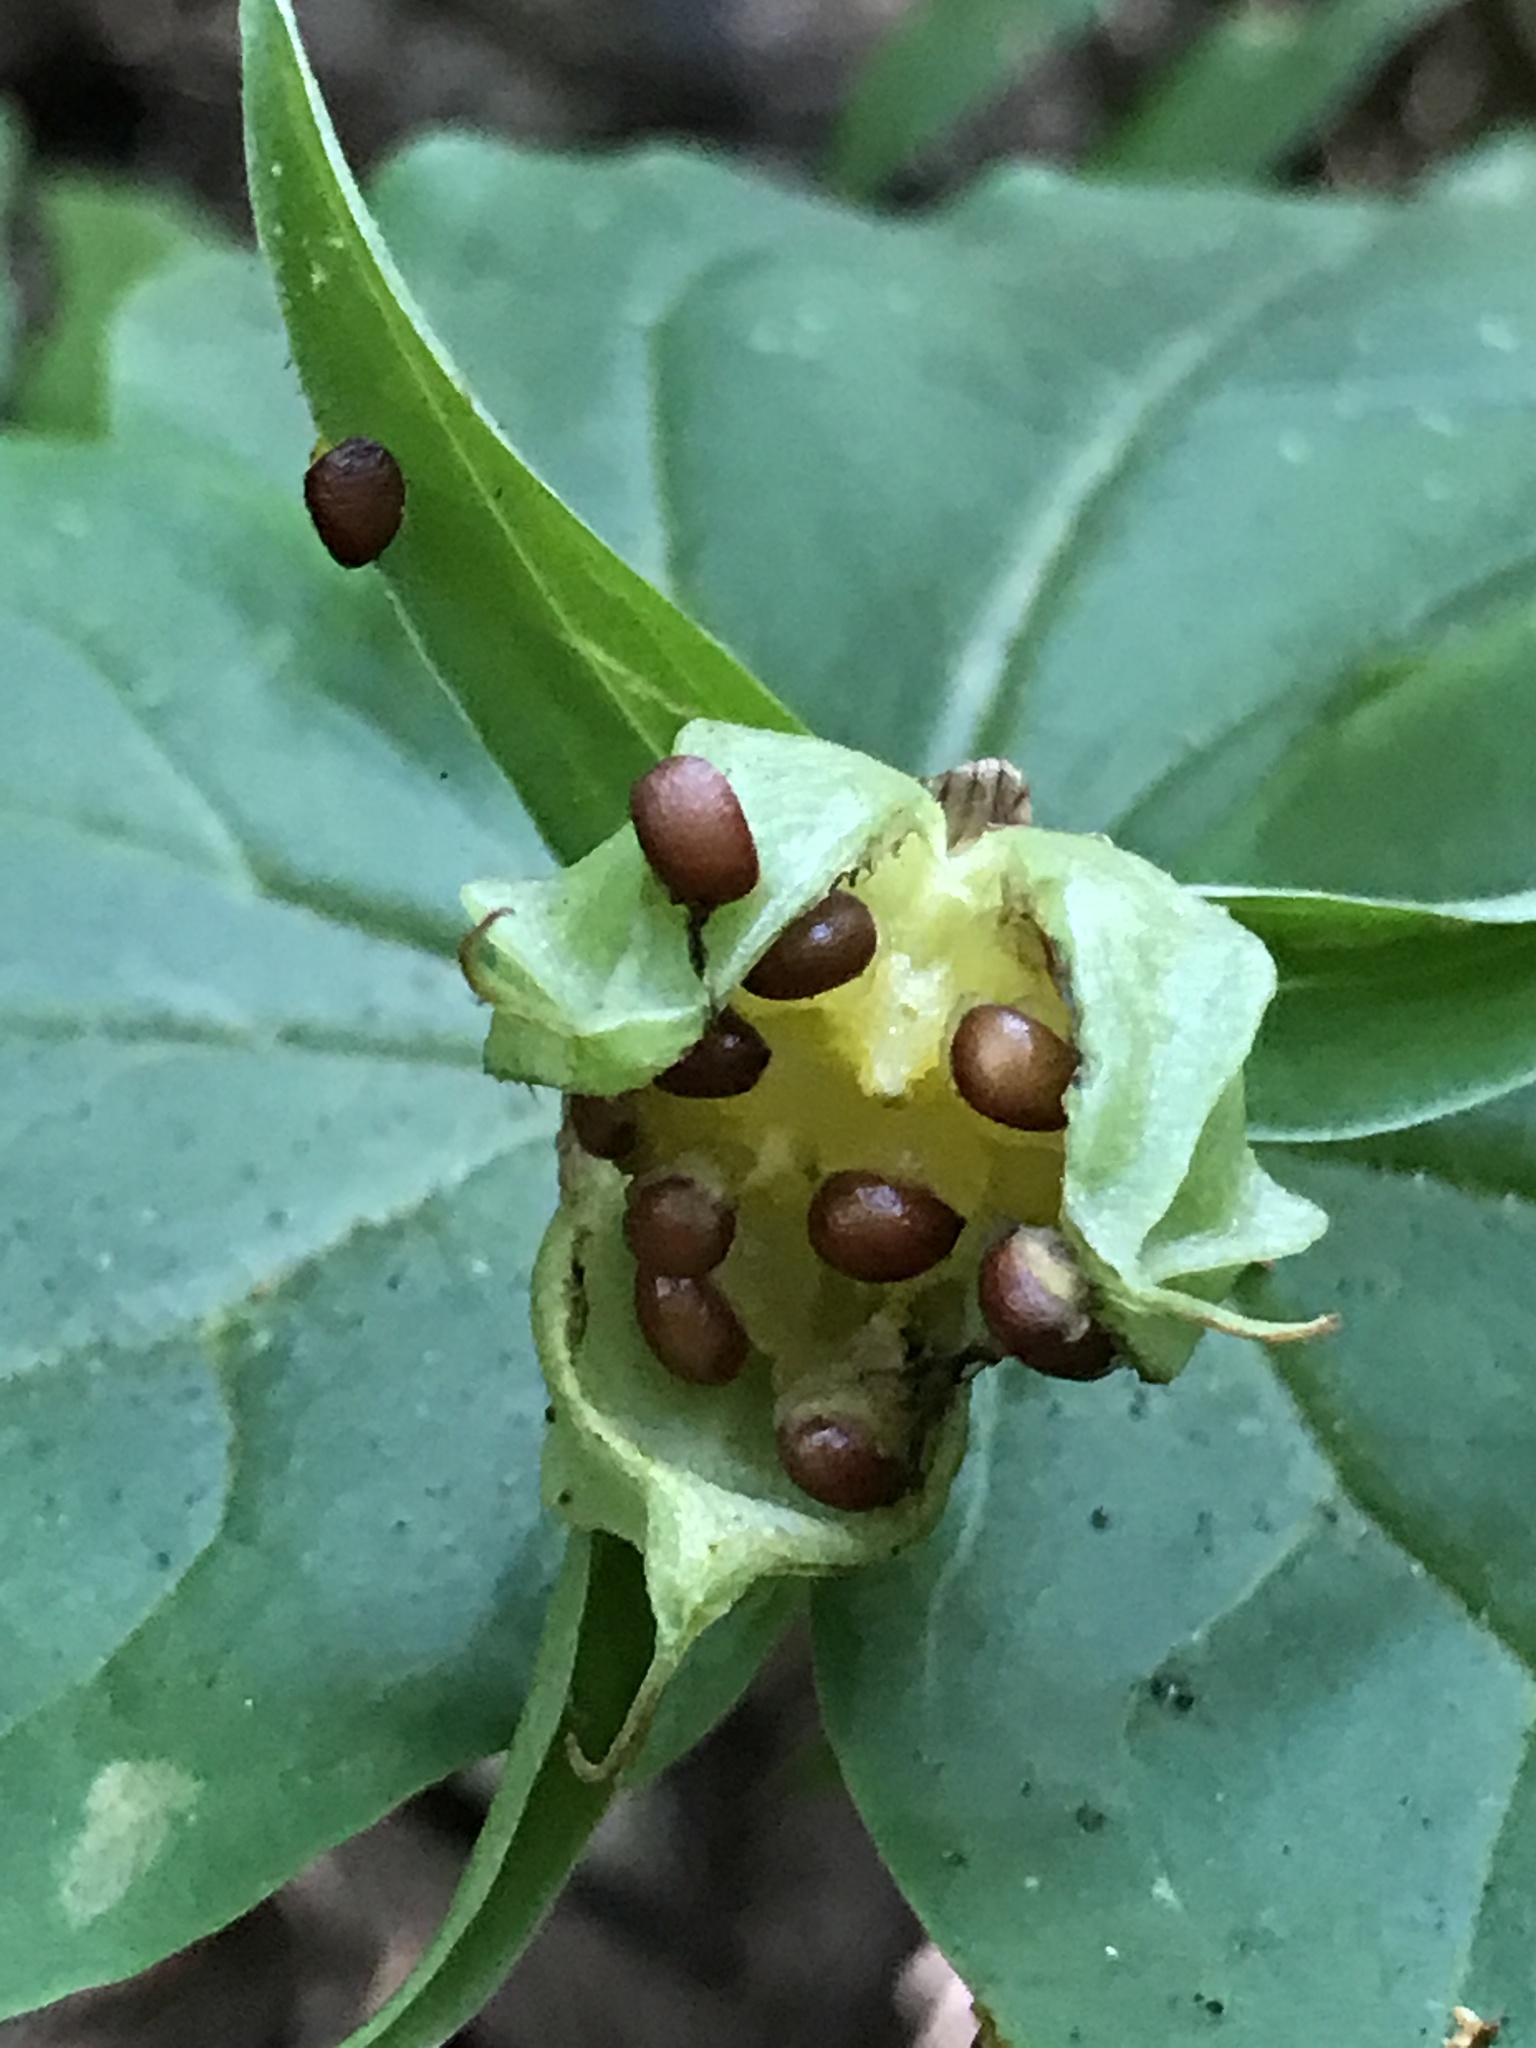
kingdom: Plantae
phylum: Tracheophyta
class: Liliopsida
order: Liliales
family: Melanthiaceae
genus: Trillium
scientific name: Trillium ovatum
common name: Pacific trillium
